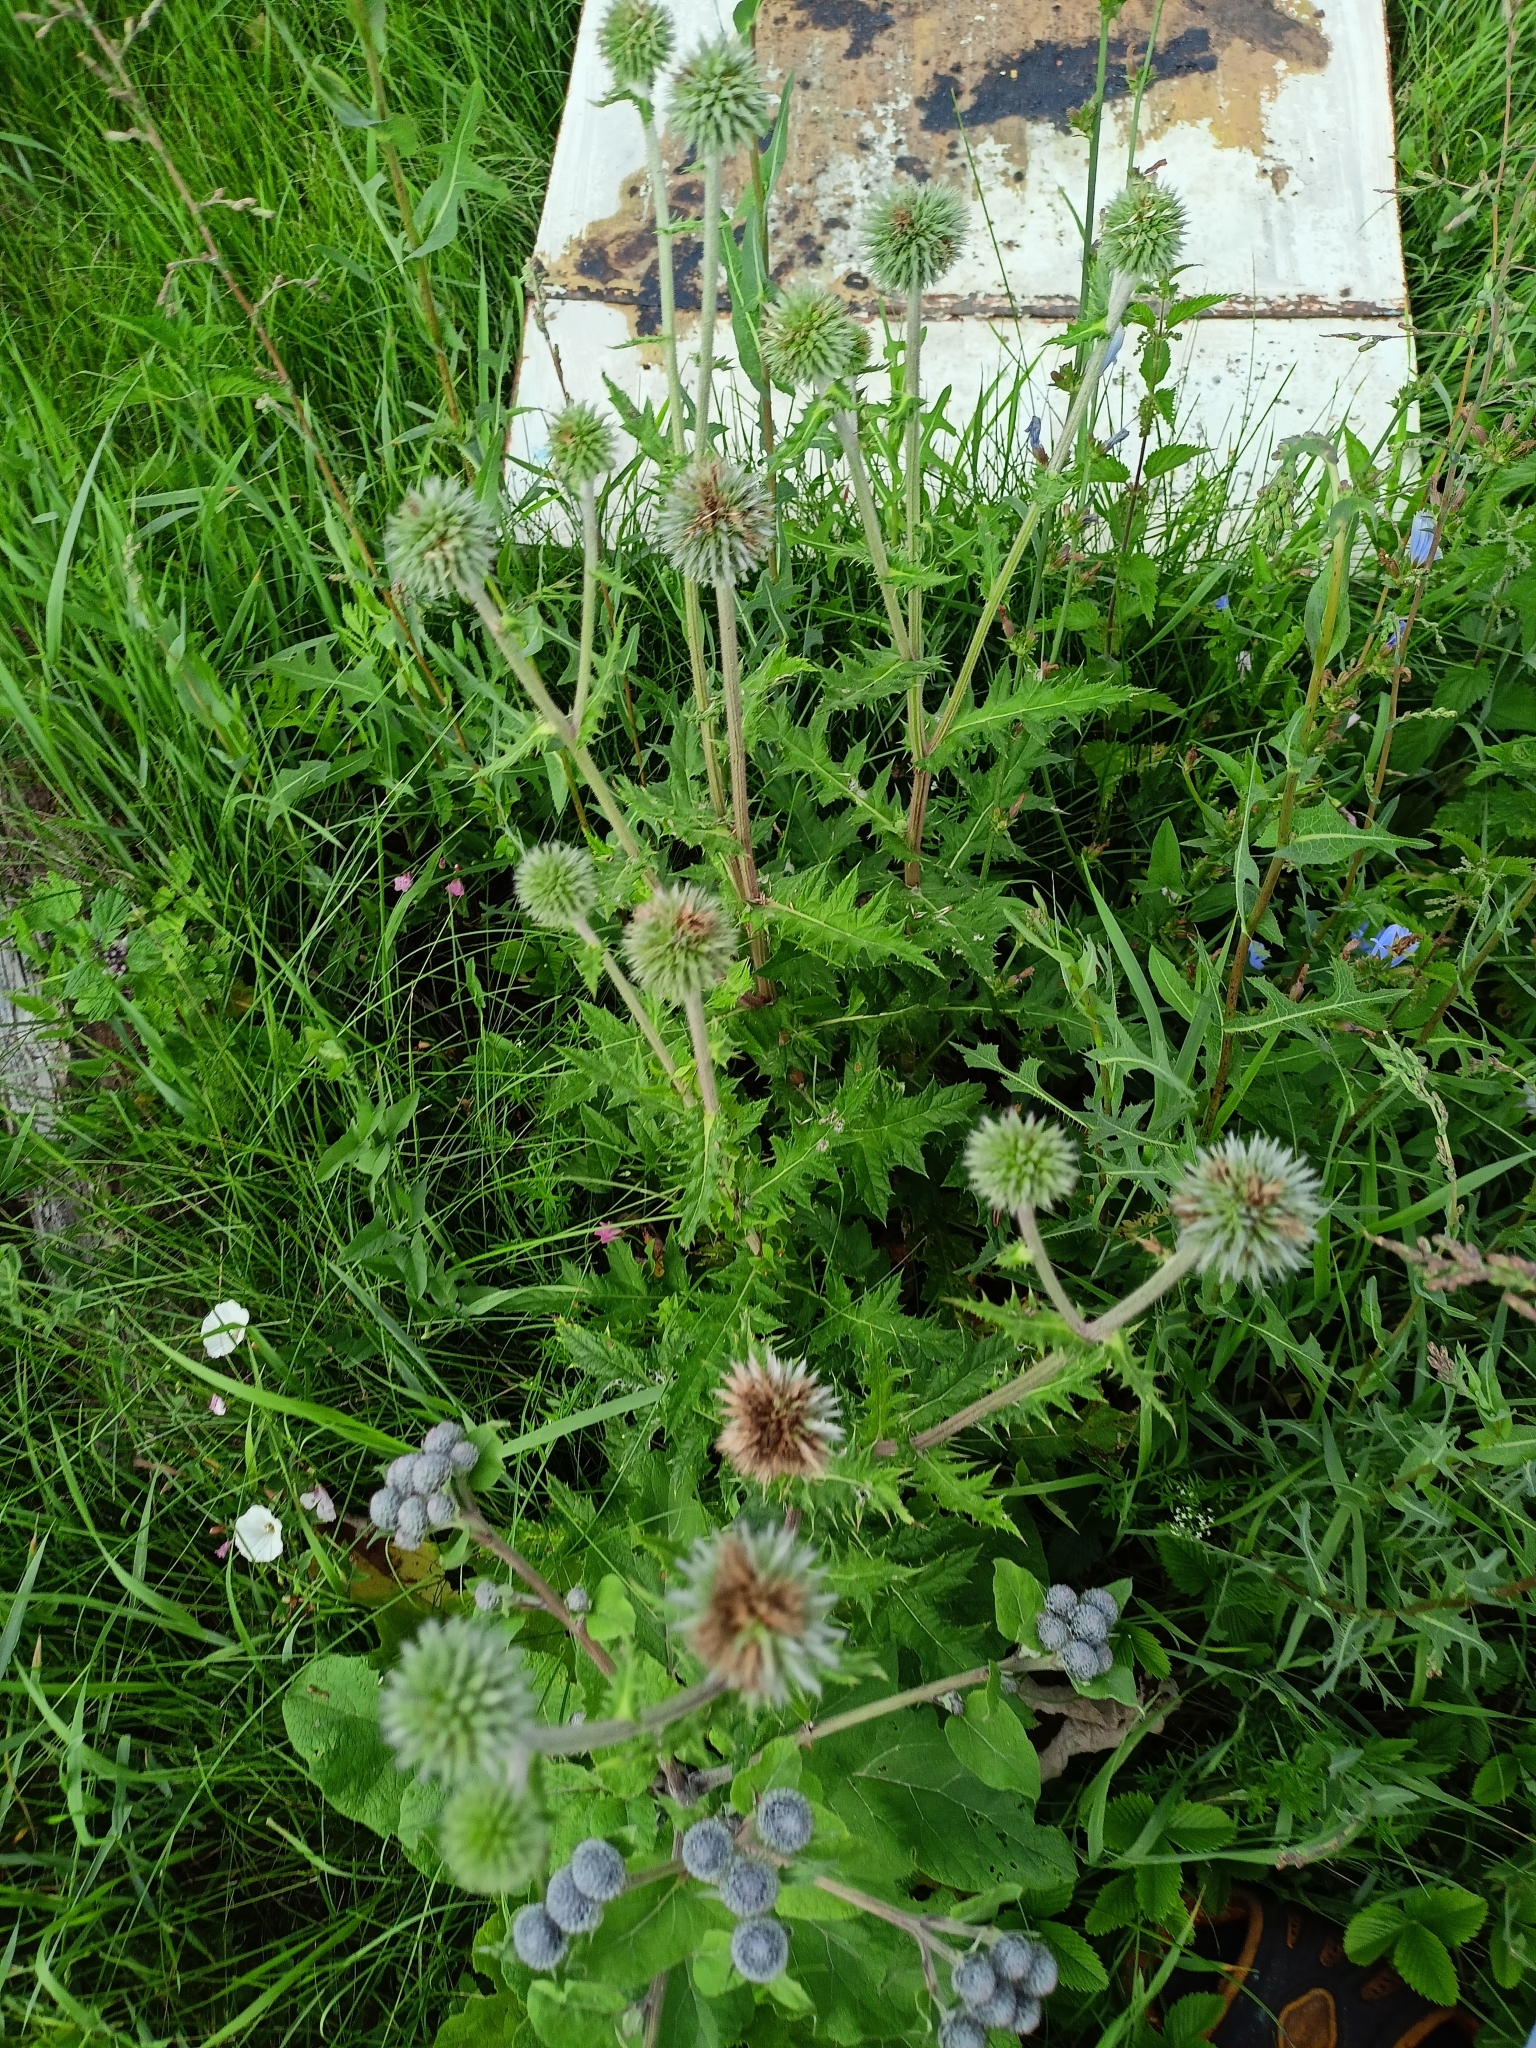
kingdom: Plantae
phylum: Tracheophyta
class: Magnoliopsida
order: Asterales
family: Asteraceae
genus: Echinops
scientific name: Echinops sphaerocephalus
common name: Glandular globe-thistle
